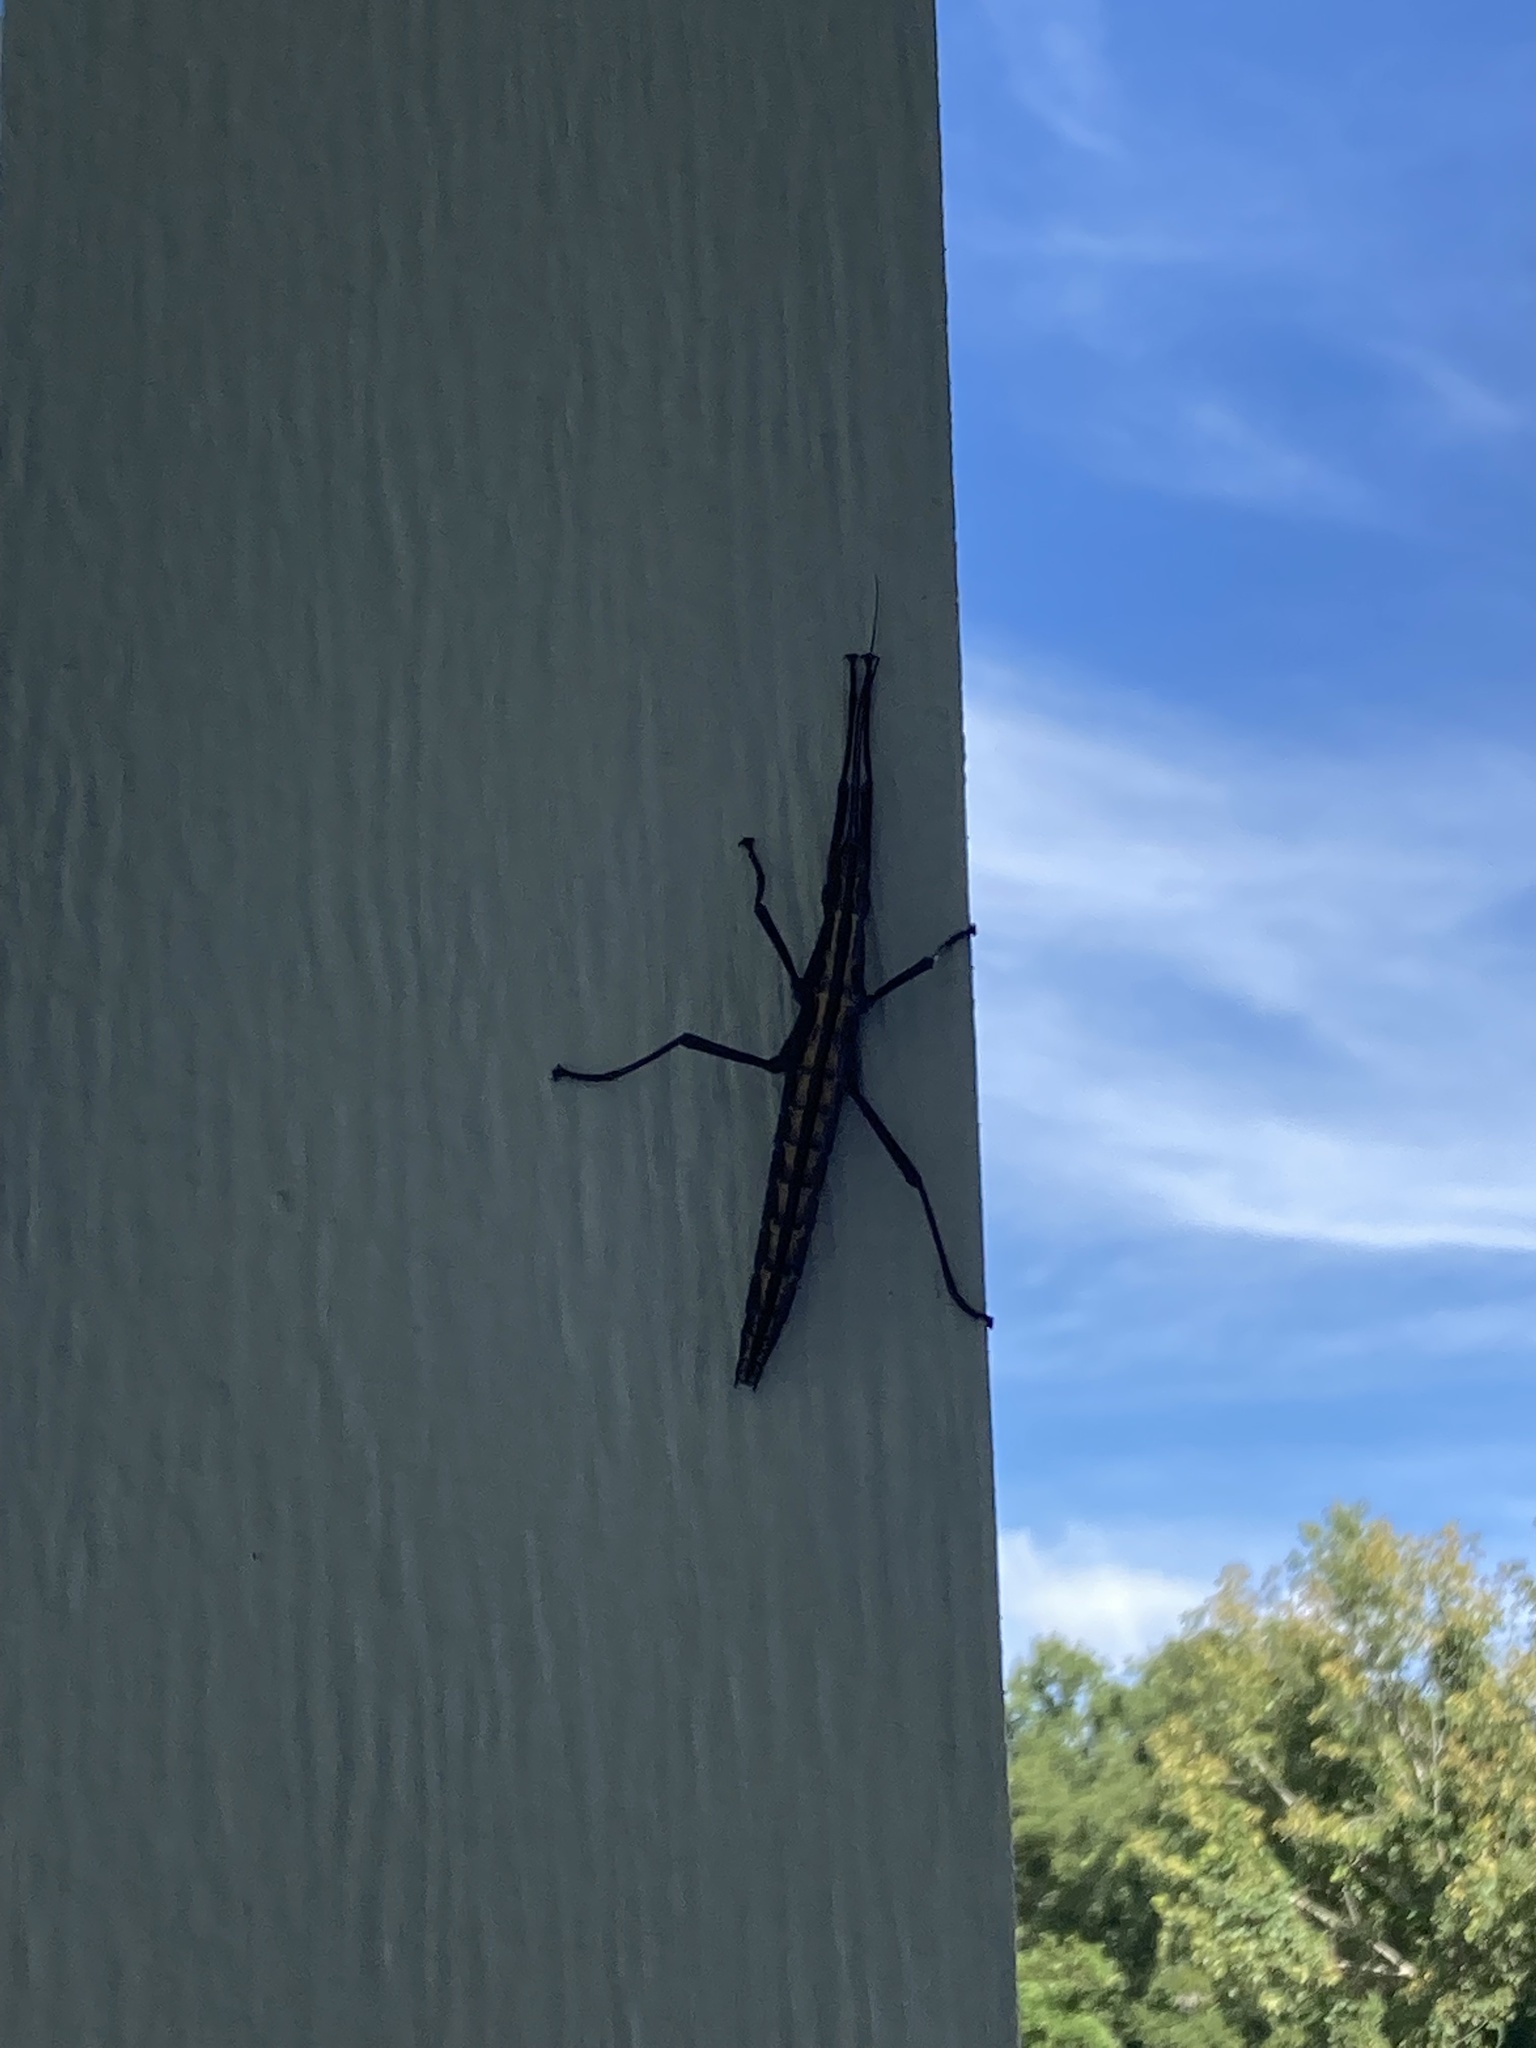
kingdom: Animalia
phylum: Arthropoda
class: Insecta
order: Phasmida
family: Pseudophasmatidae
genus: Anisomorpha
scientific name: Anisomorpha buprestoides
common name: Florida stick insect
